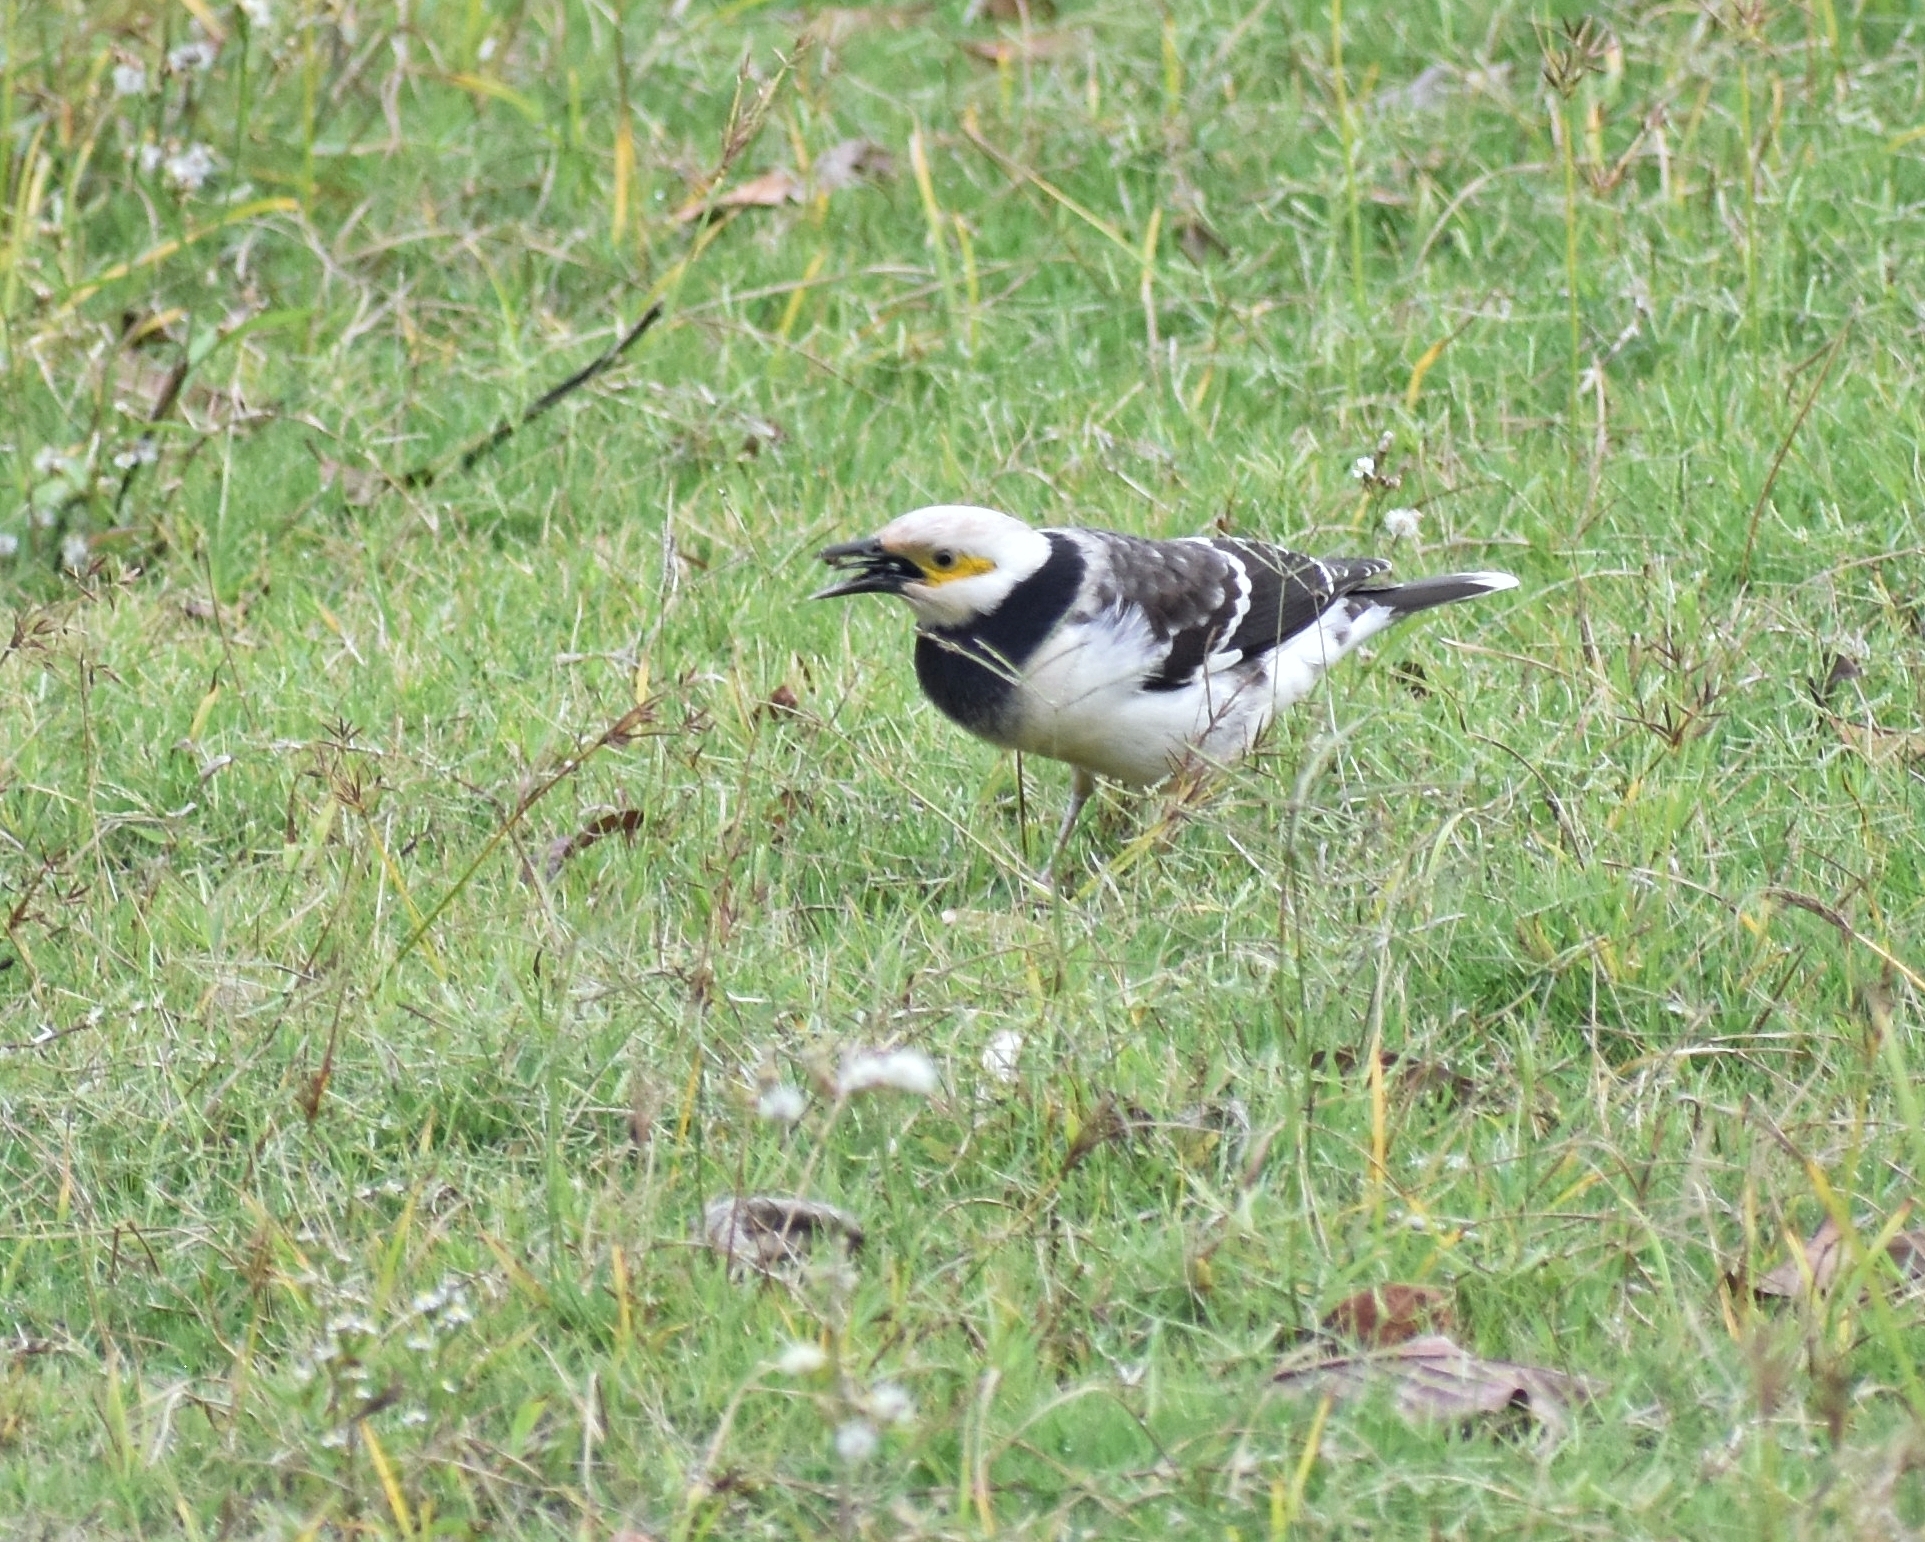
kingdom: Animalia
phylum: Chordata
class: Aves
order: Passeriformes
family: Sturnidae
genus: Gracupica
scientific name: Gracupica nigricollis
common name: Black-collared starling
